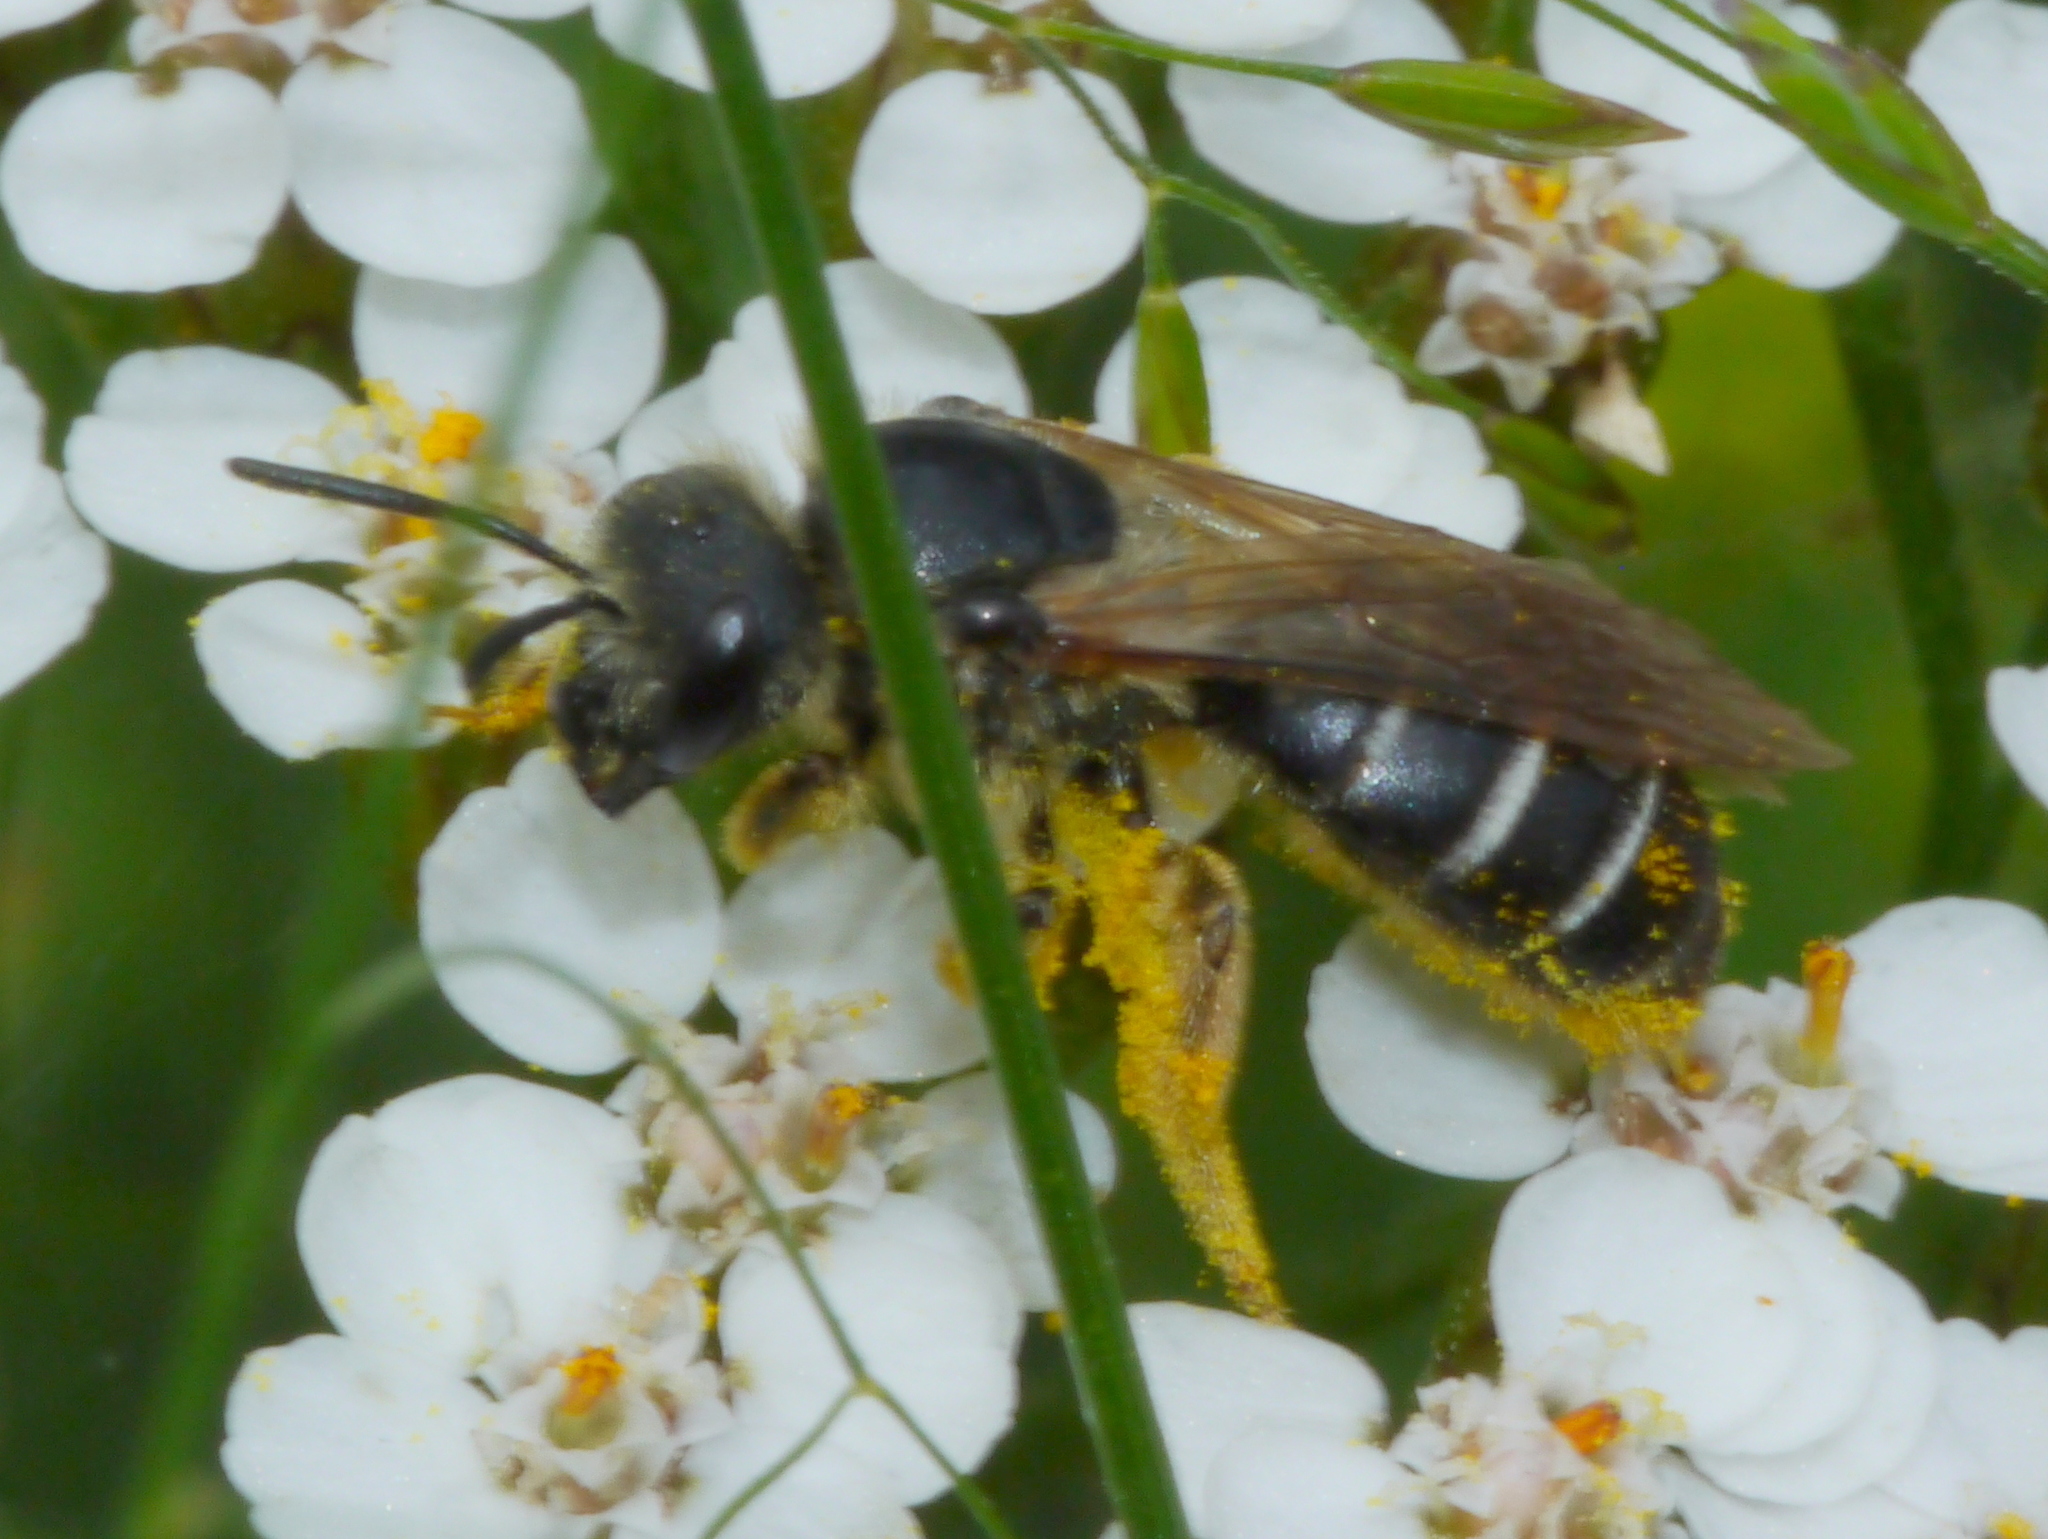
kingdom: Animalia
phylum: Arthropoda
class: Insecta
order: Hymenoptera
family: Halictidae
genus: Halictus
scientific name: Halictus rubicundus
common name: Orange-legged furrow bee
